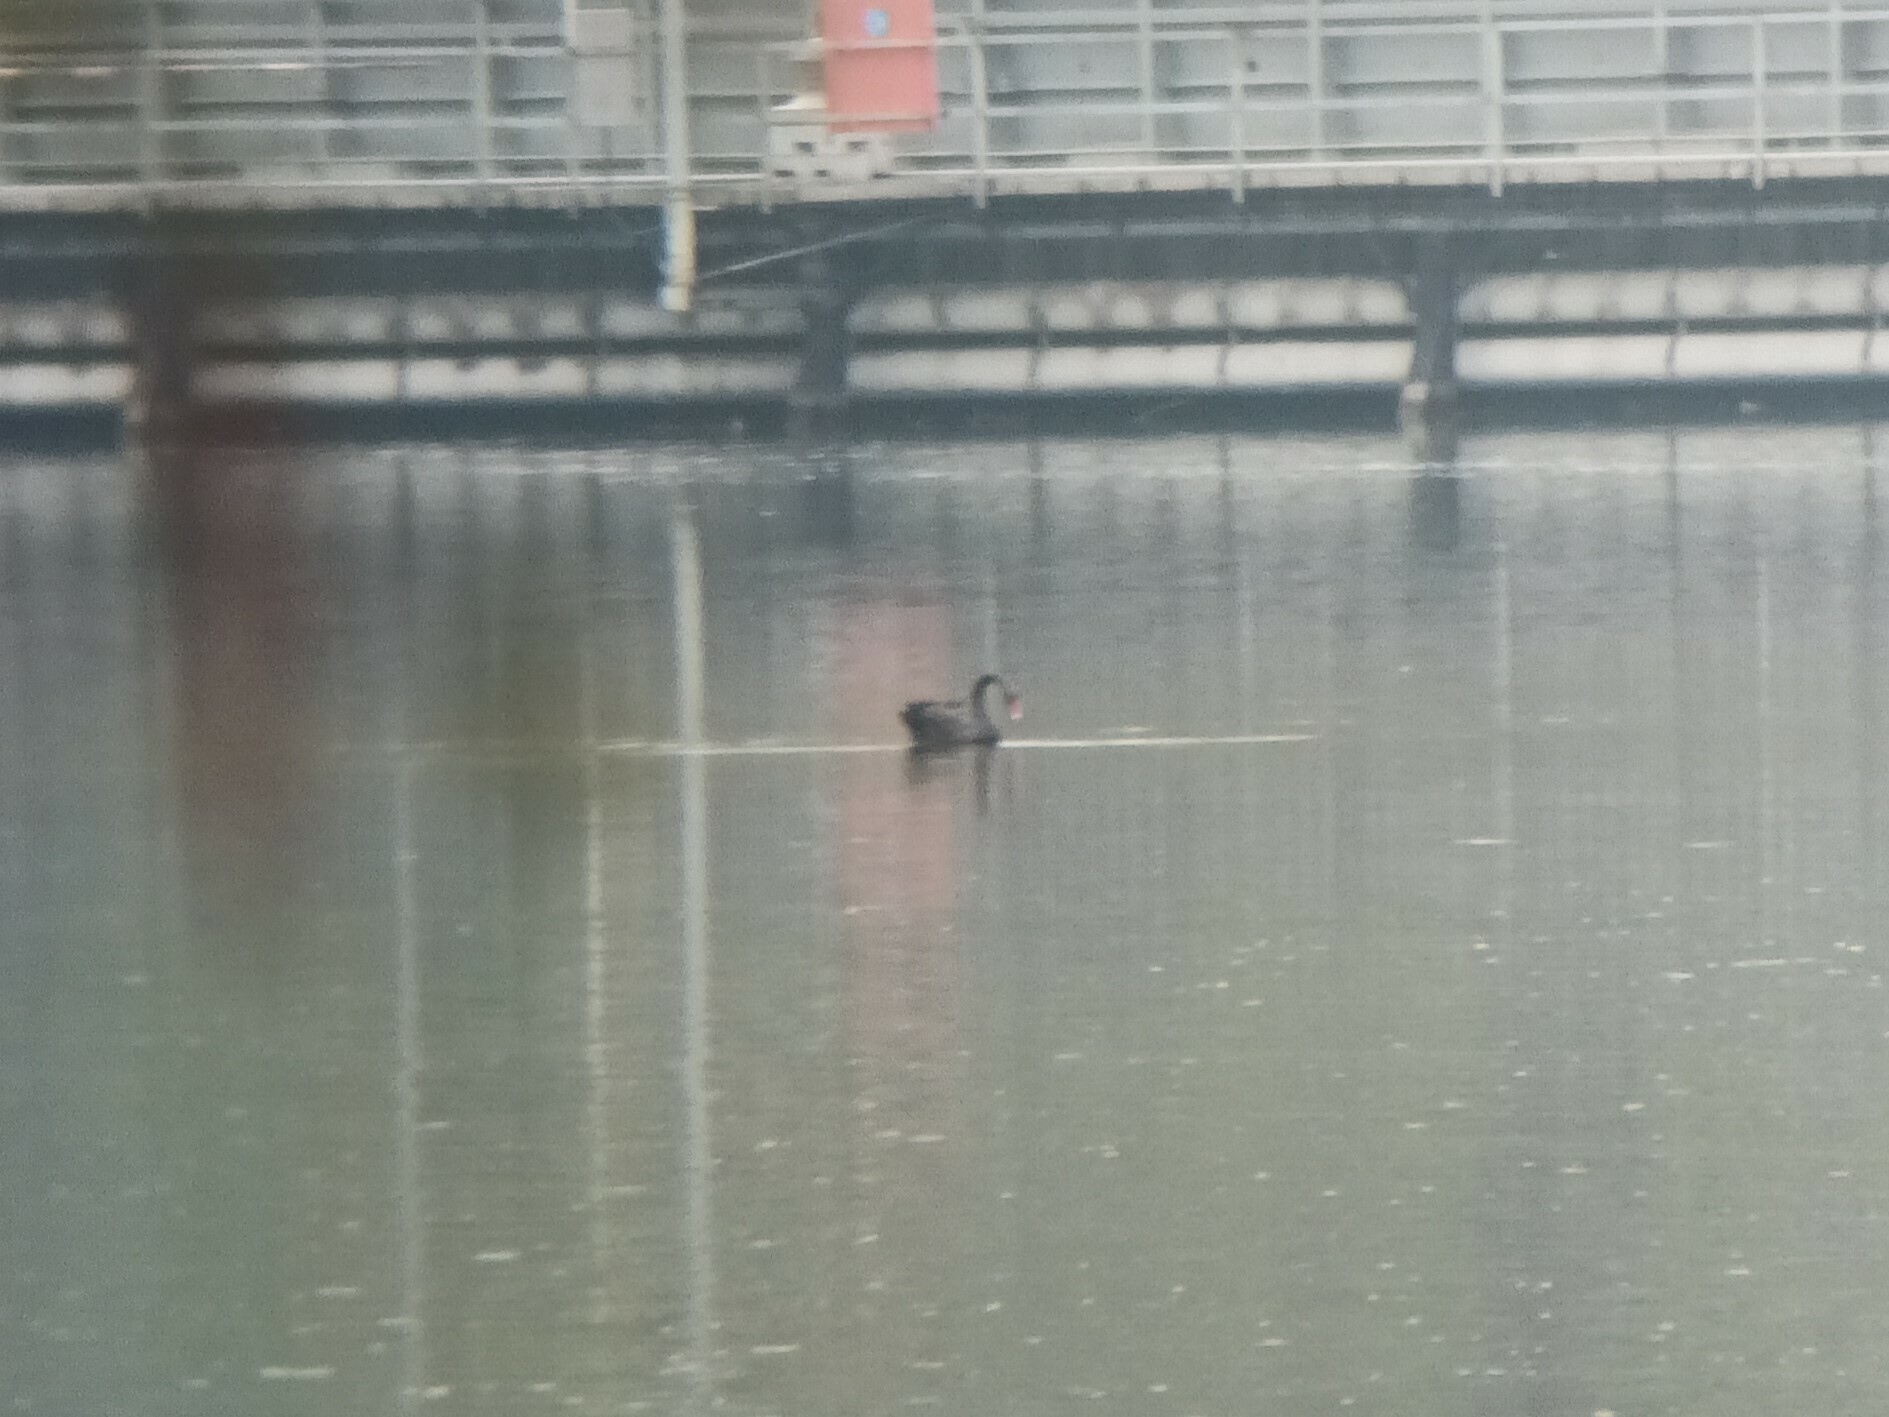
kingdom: Animalia
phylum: Chordata
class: Aves
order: Anseriformes
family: Anatidae
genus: Cygnus
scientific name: Cygnus atratus
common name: Black swan
